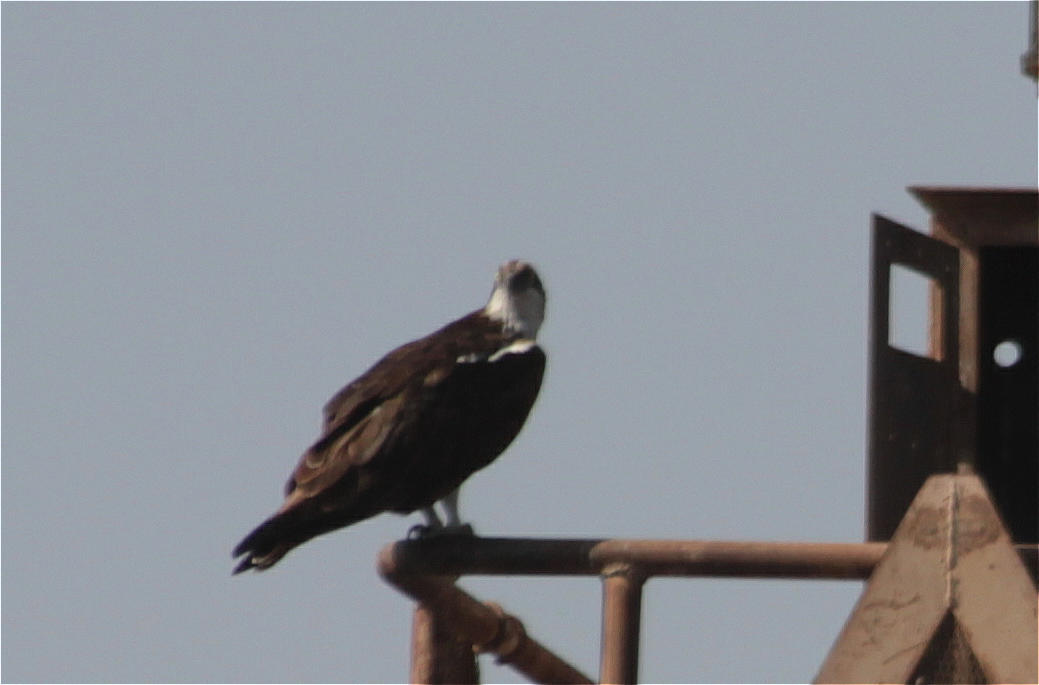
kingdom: Animalia
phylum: Chordata
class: Aves
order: Accipitriformes
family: Pandionidae
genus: Pandion
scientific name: Pandion haliaetus
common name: Osprey
